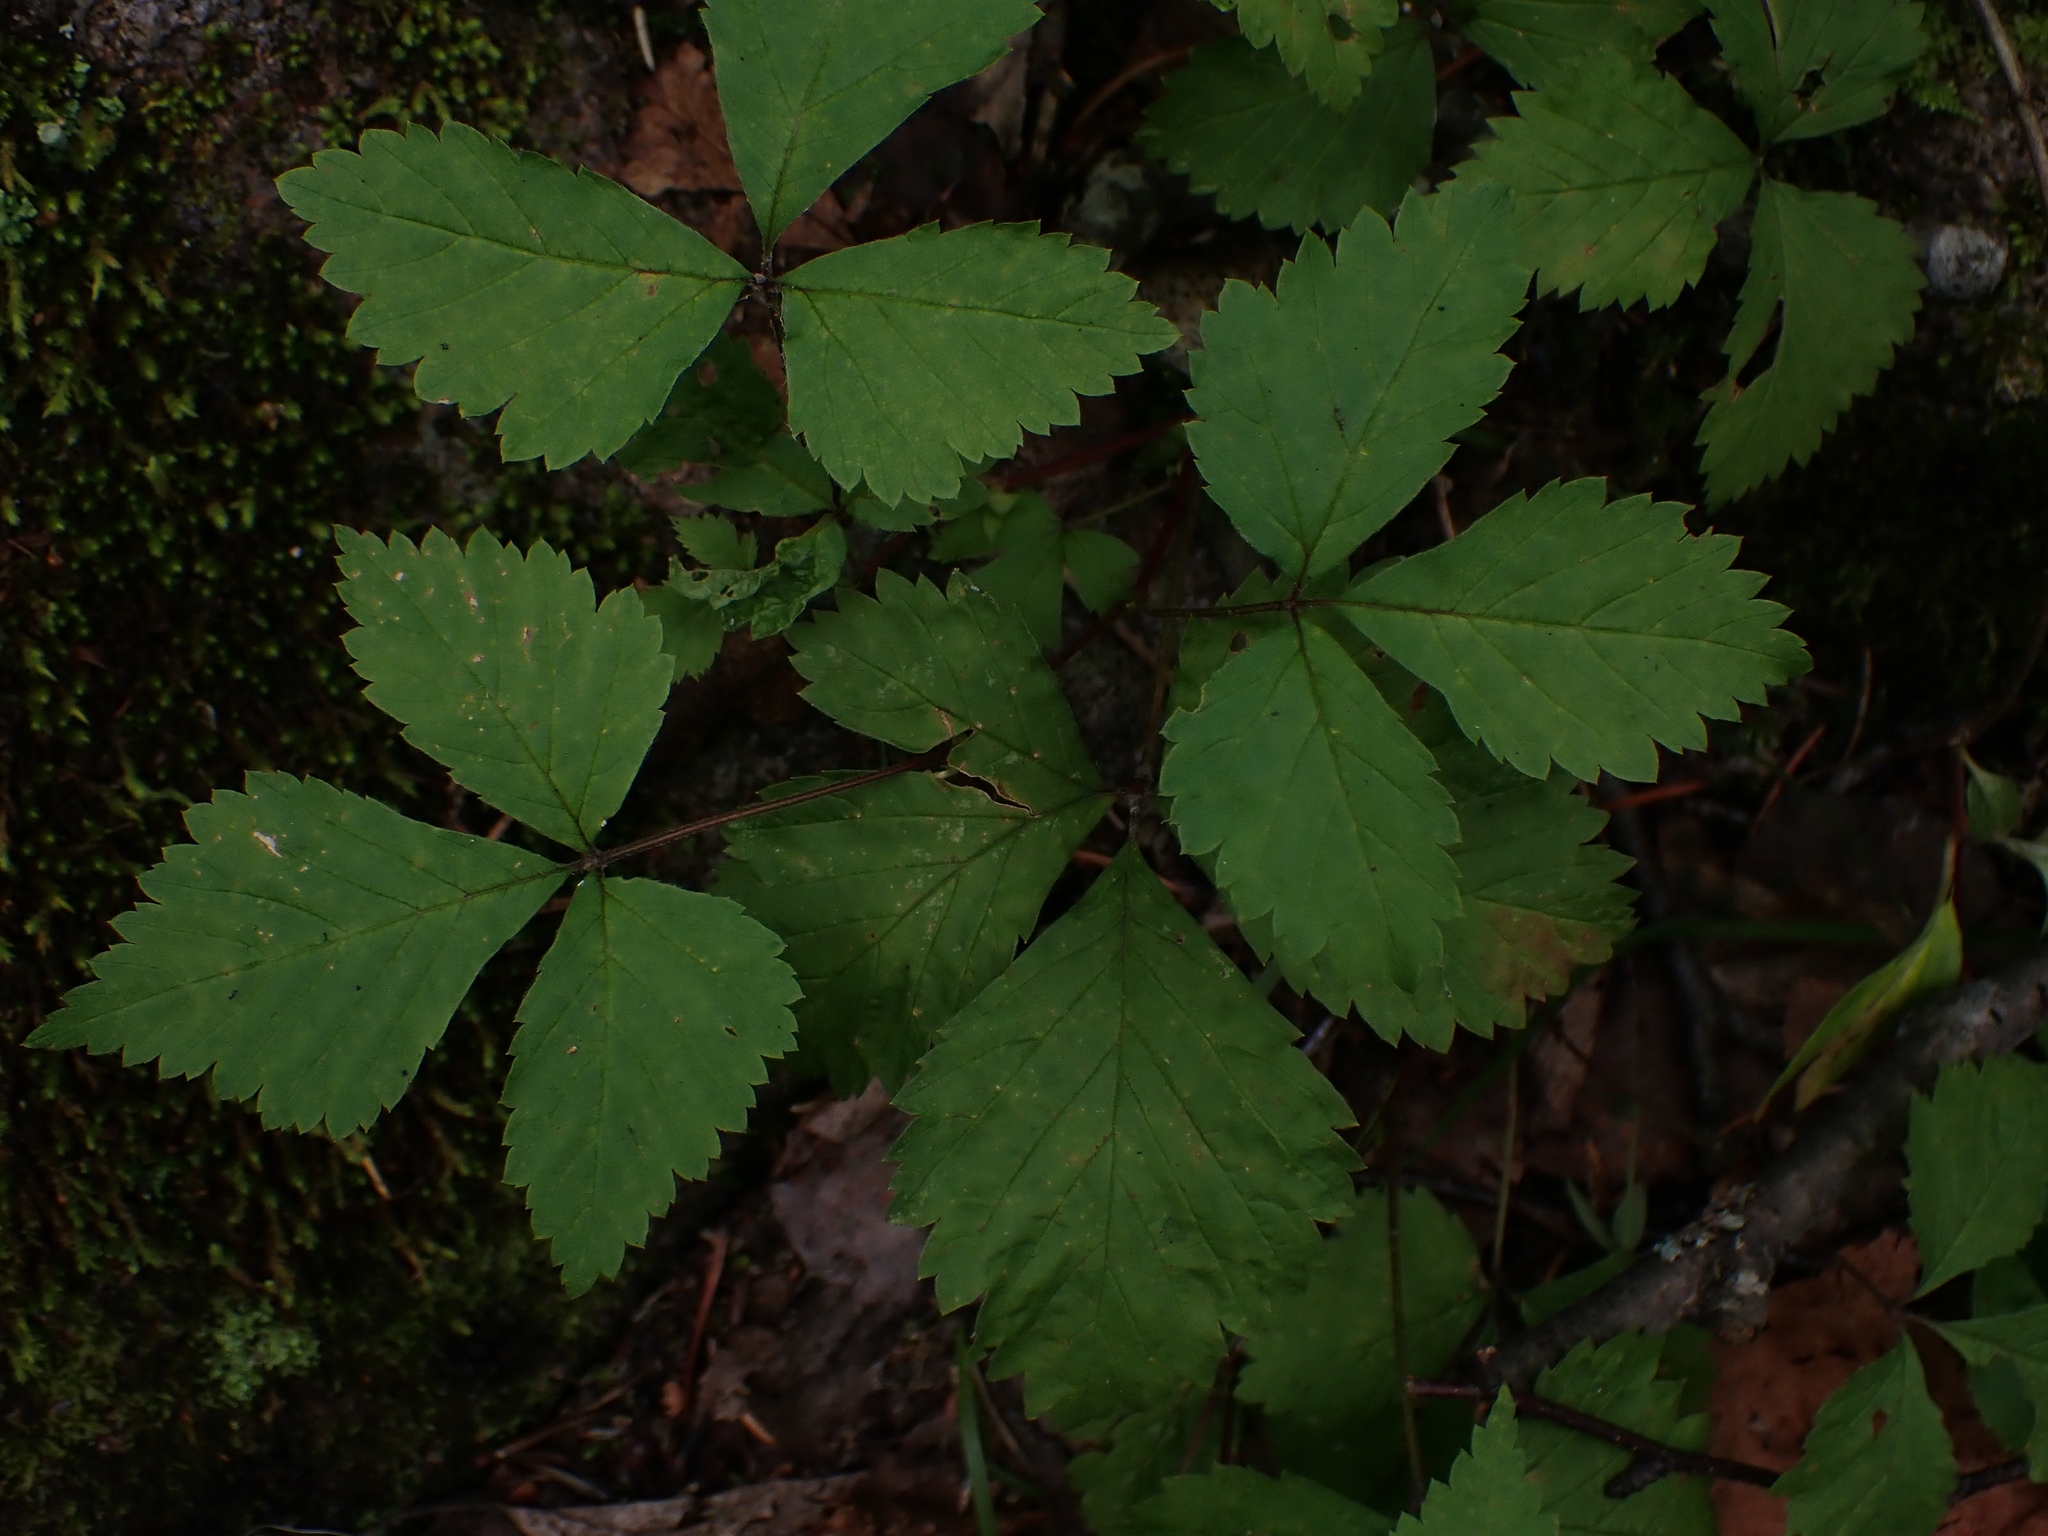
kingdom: Plantae
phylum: Tracheophyta
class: Magnoliopsida
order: Rosales
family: Rosaceae
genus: Rubus
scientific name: Rubus pubescens
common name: Dwarf raspberry
